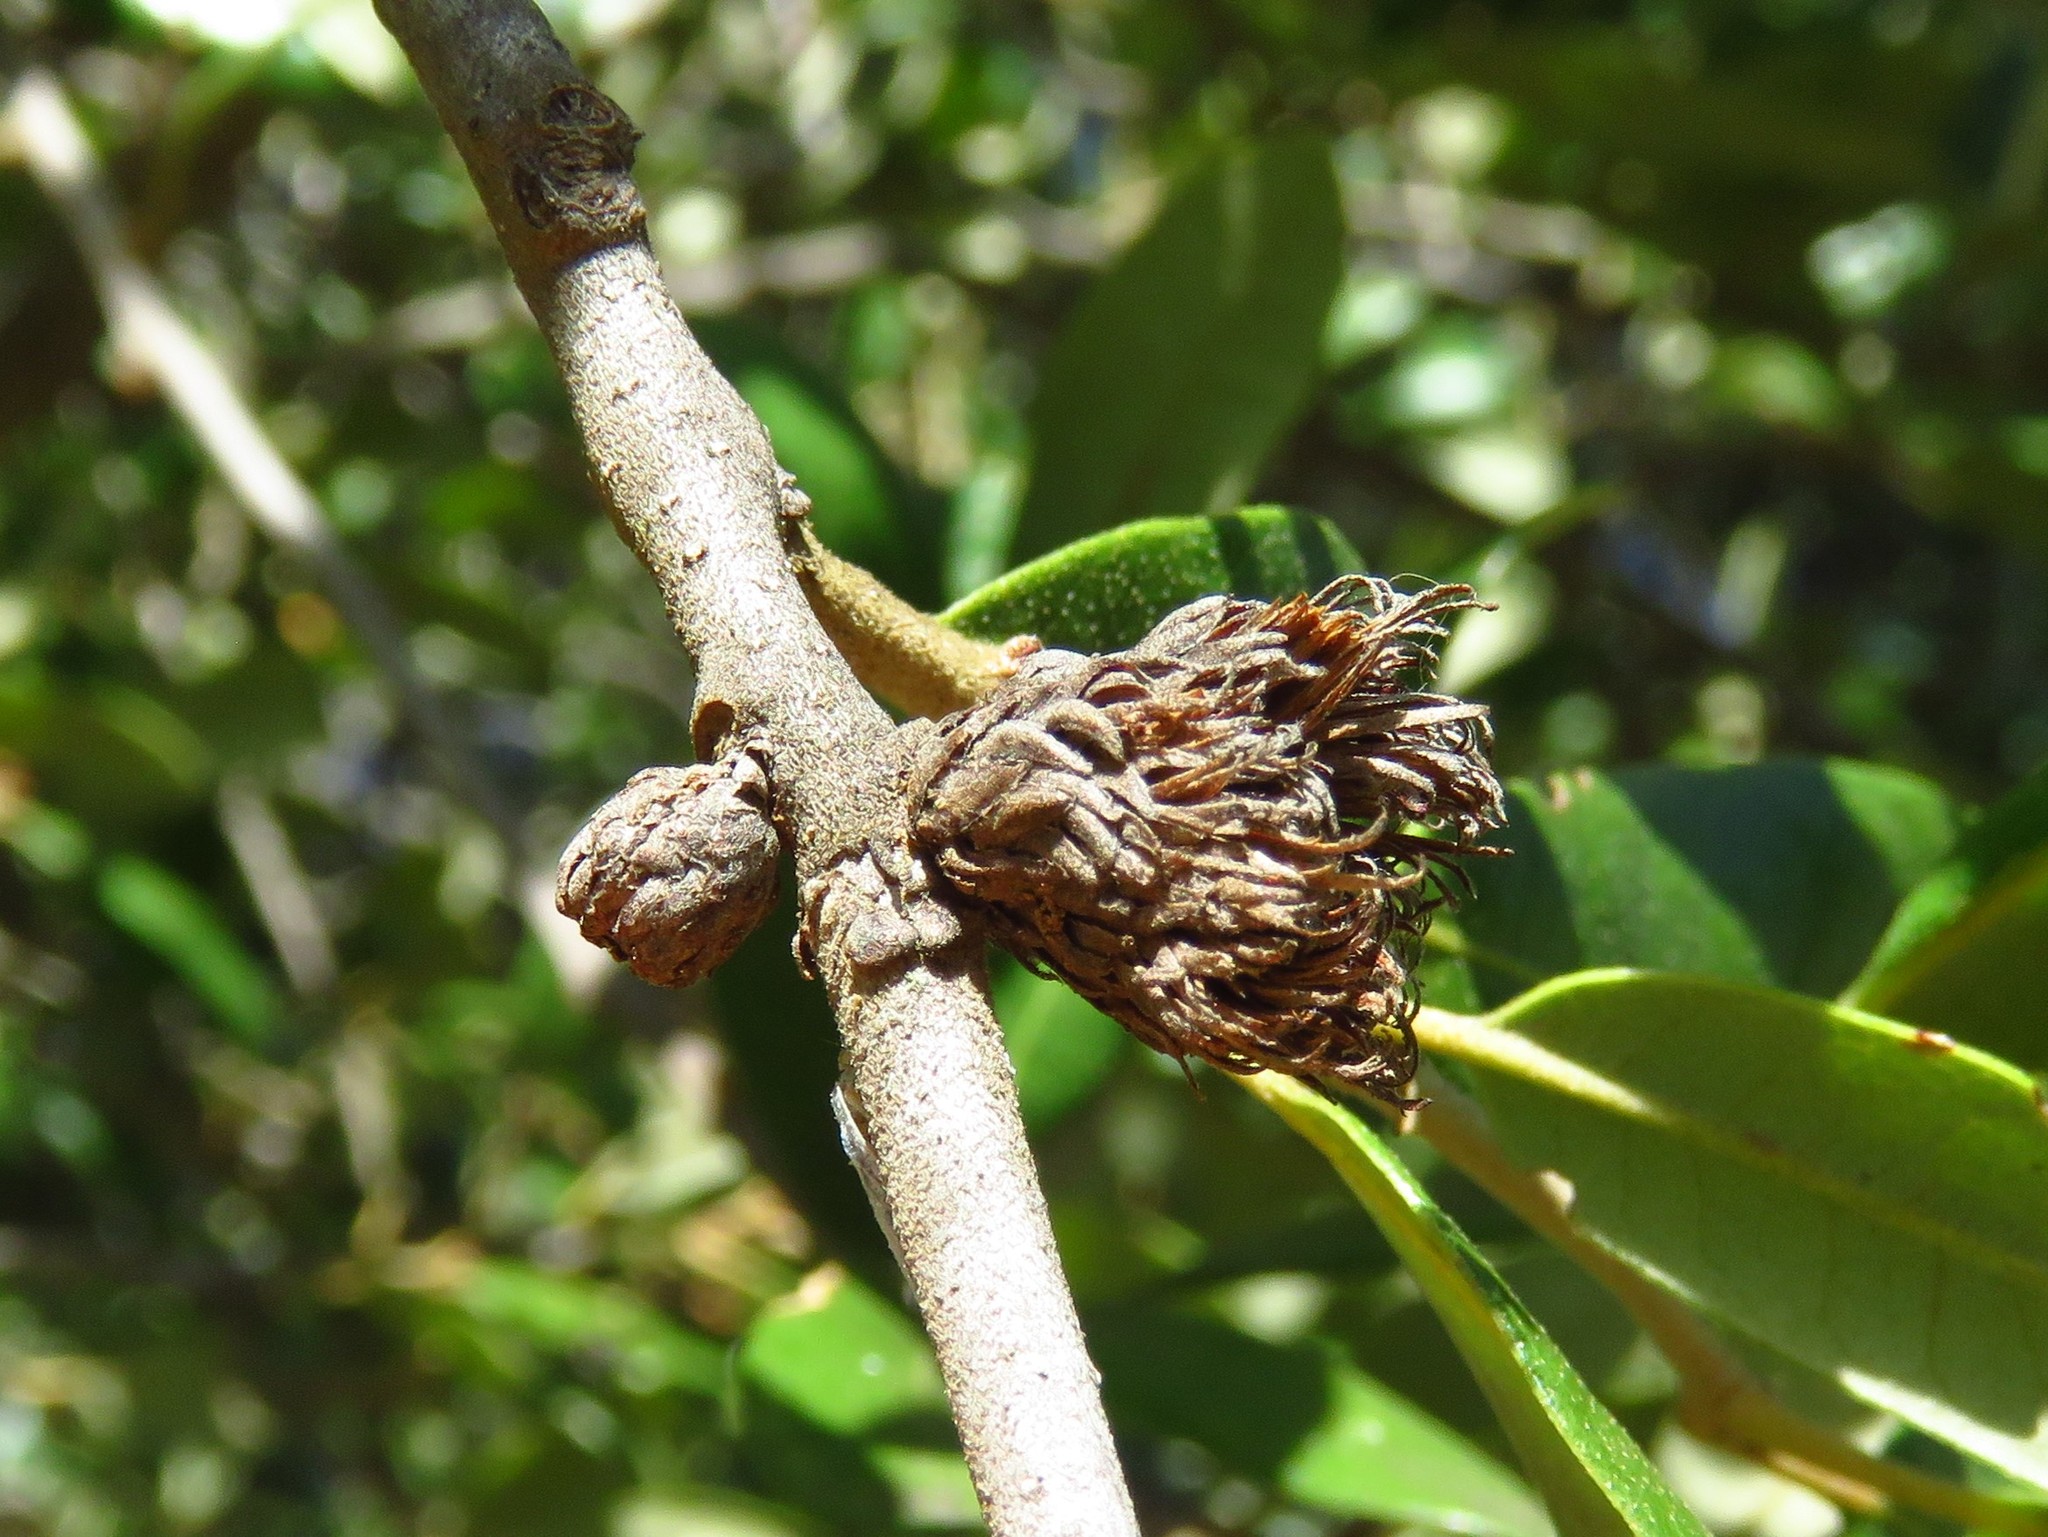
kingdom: Animalia
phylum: Arthropoda
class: Insecta
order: Hymenoptera
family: Cynipidae
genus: Andricus
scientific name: Andricus quercusfoliatus
